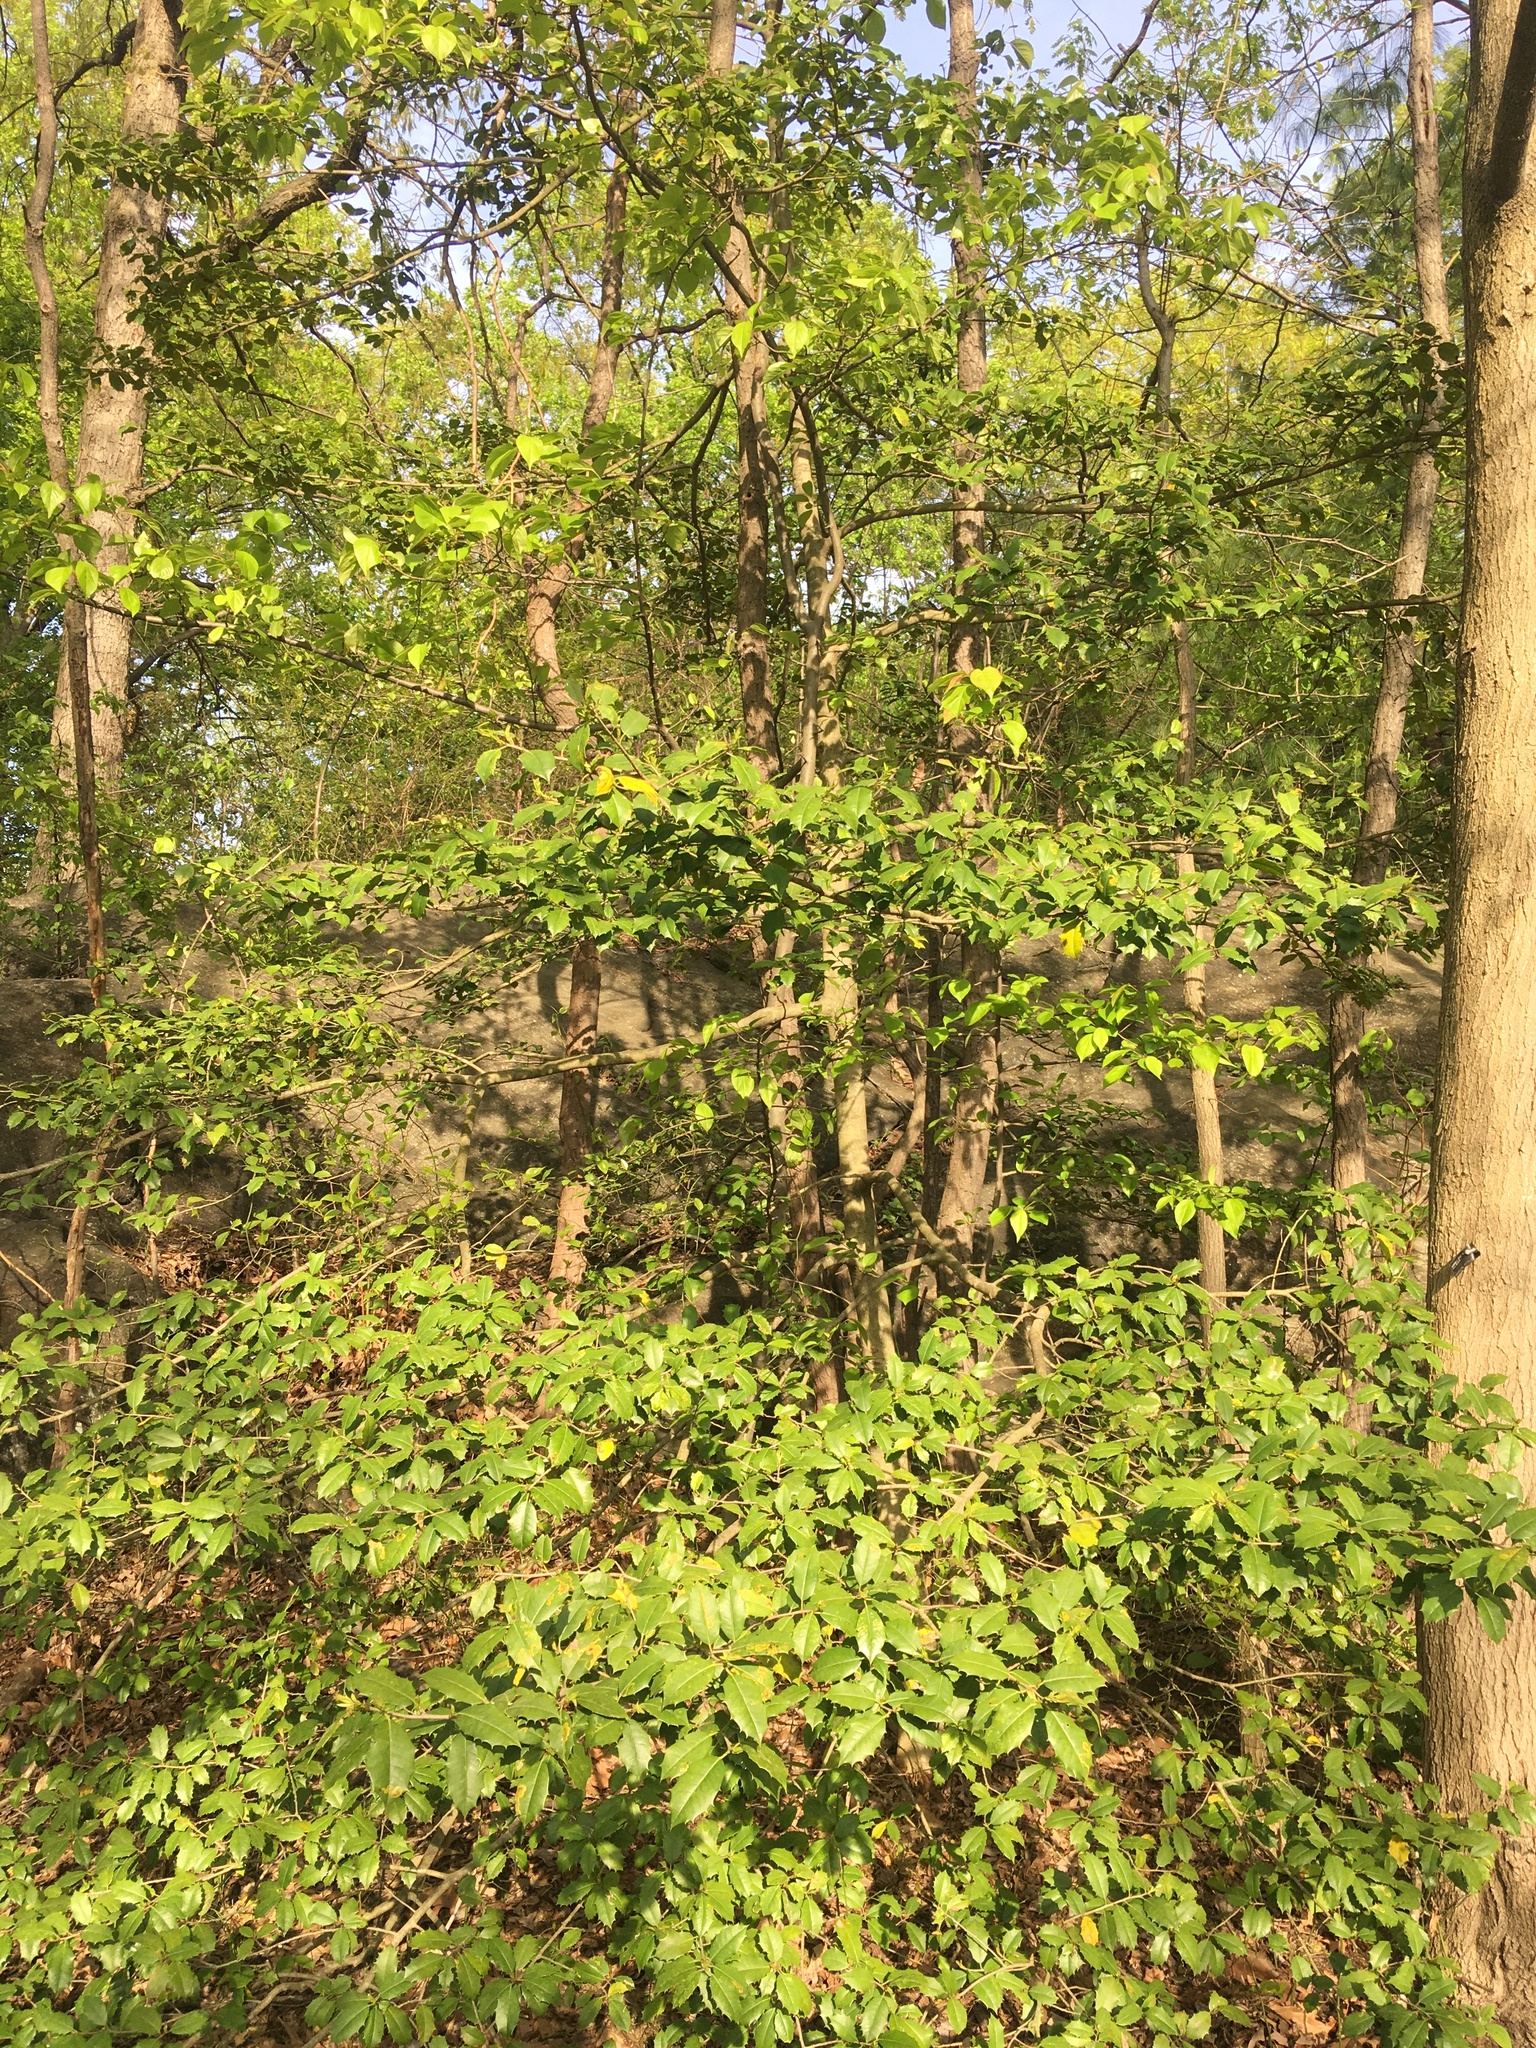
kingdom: Plantae
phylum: Tracheophyta
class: Magnoliopsida
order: Aquifoliales
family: Aquifoliaceae
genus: Ilex
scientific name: Ilex opaca
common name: American holly
